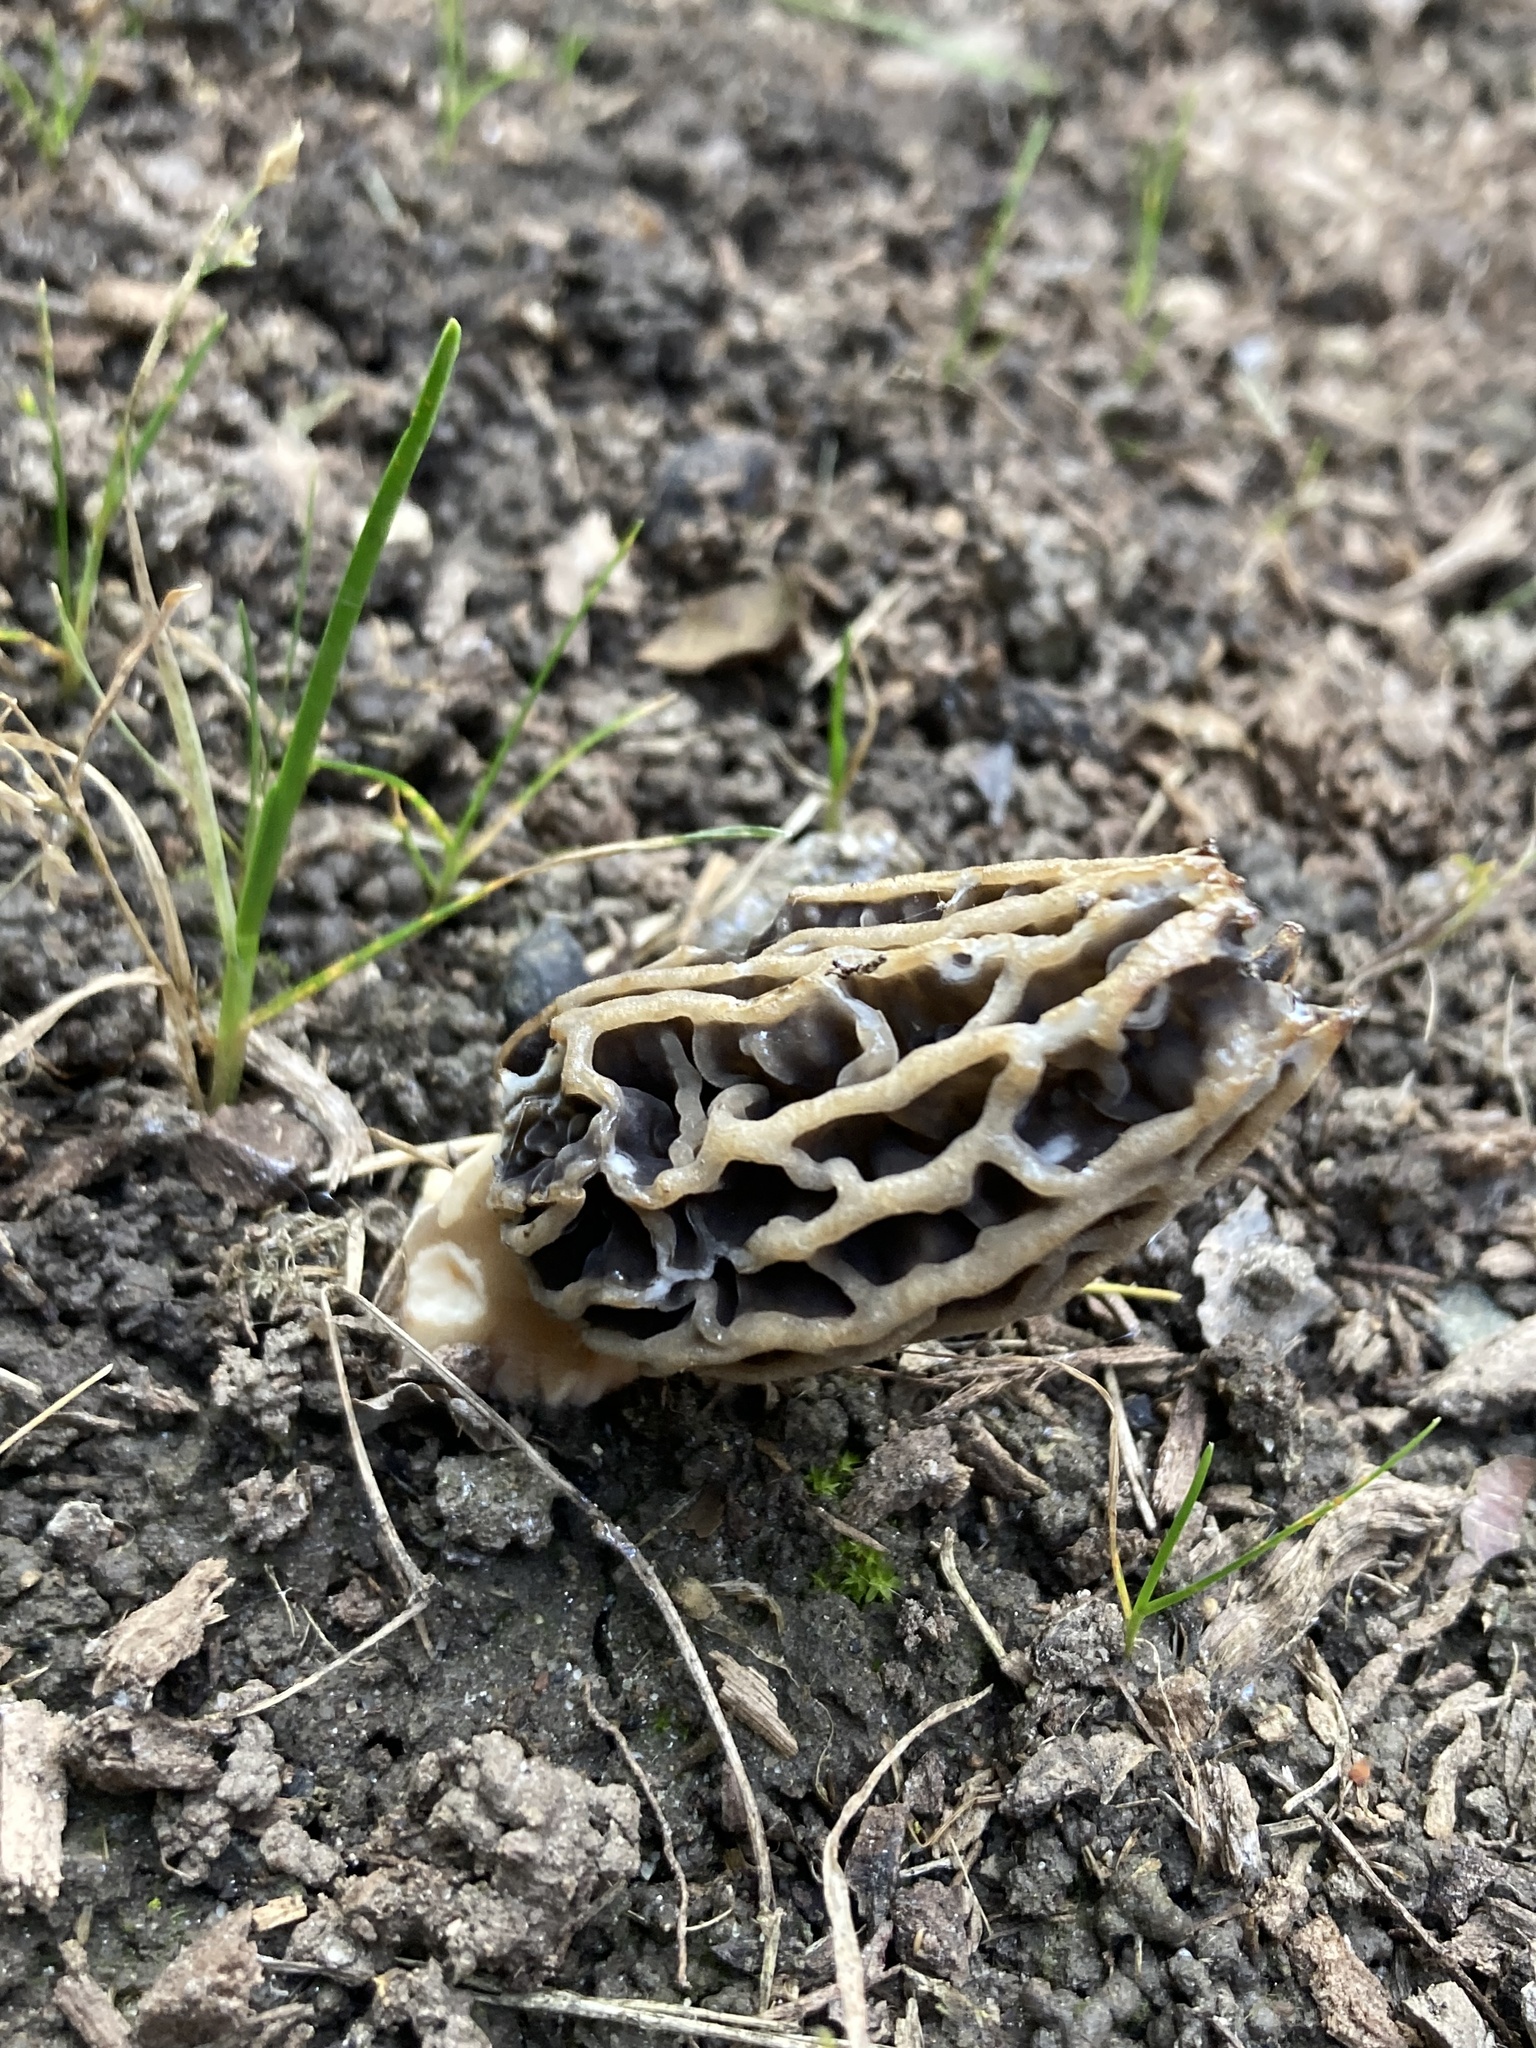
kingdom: Fungi
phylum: Ascomycota
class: Pezizomycetes
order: Pezizales
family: Morchellaceae
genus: Morchella
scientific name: Morchella rufobrunnea
